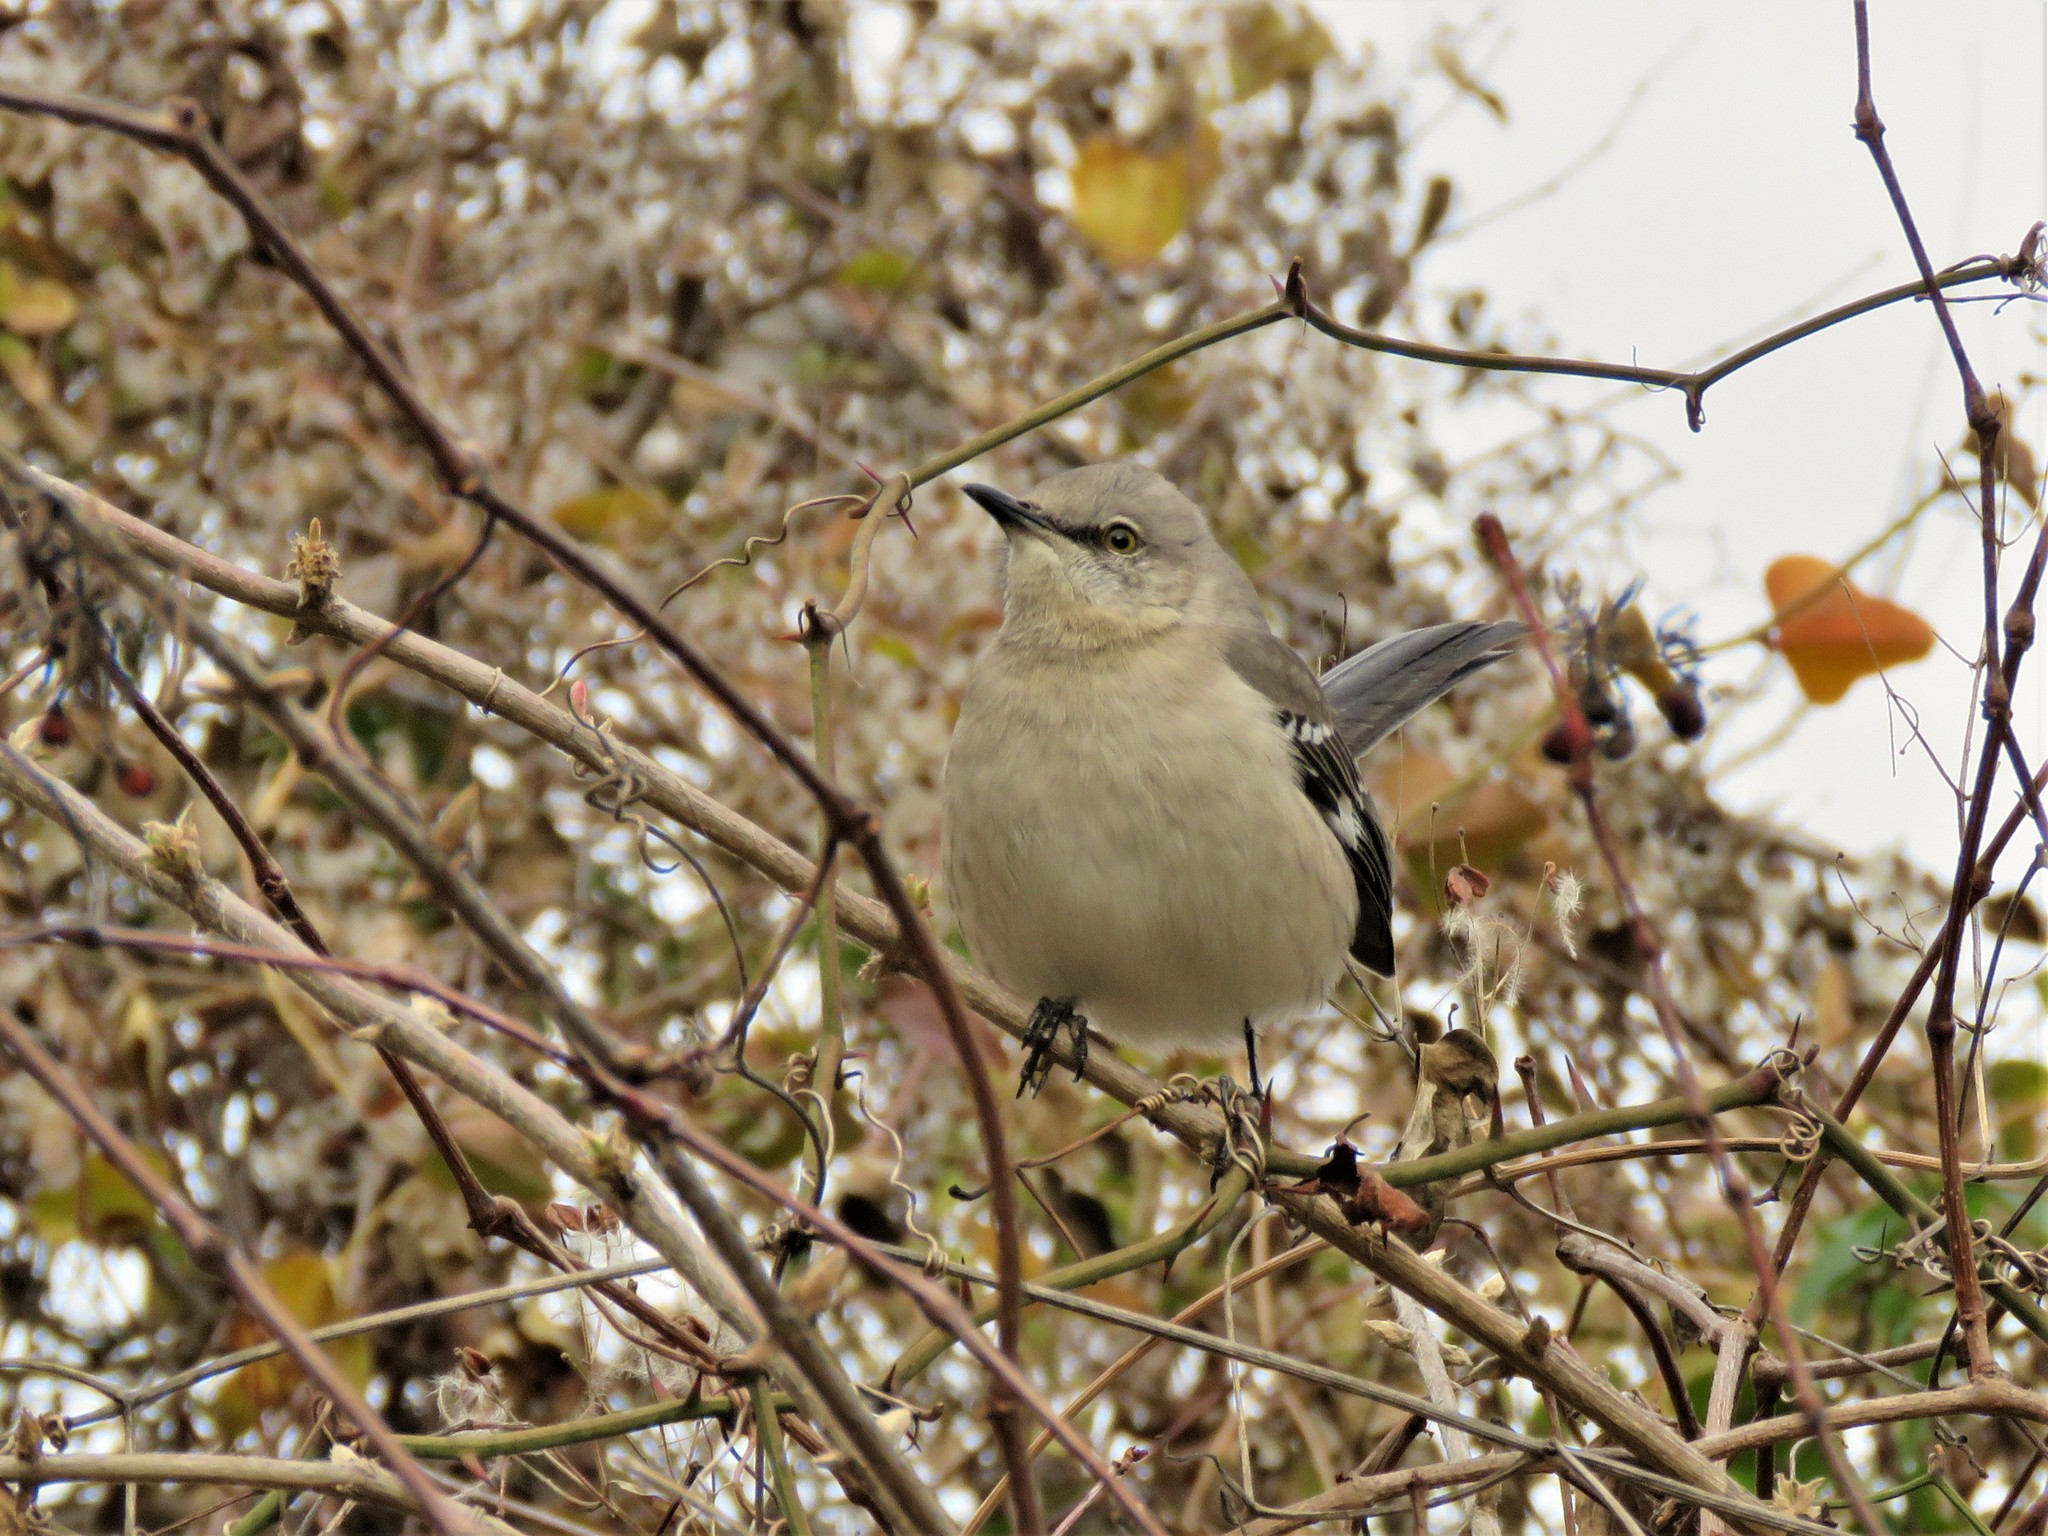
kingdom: Animalia
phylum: Chordata
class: Aves
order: Passeriformes
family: Mimidae
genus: Mimus
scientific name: Mimus polyglottos
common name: Northern mockingbird
